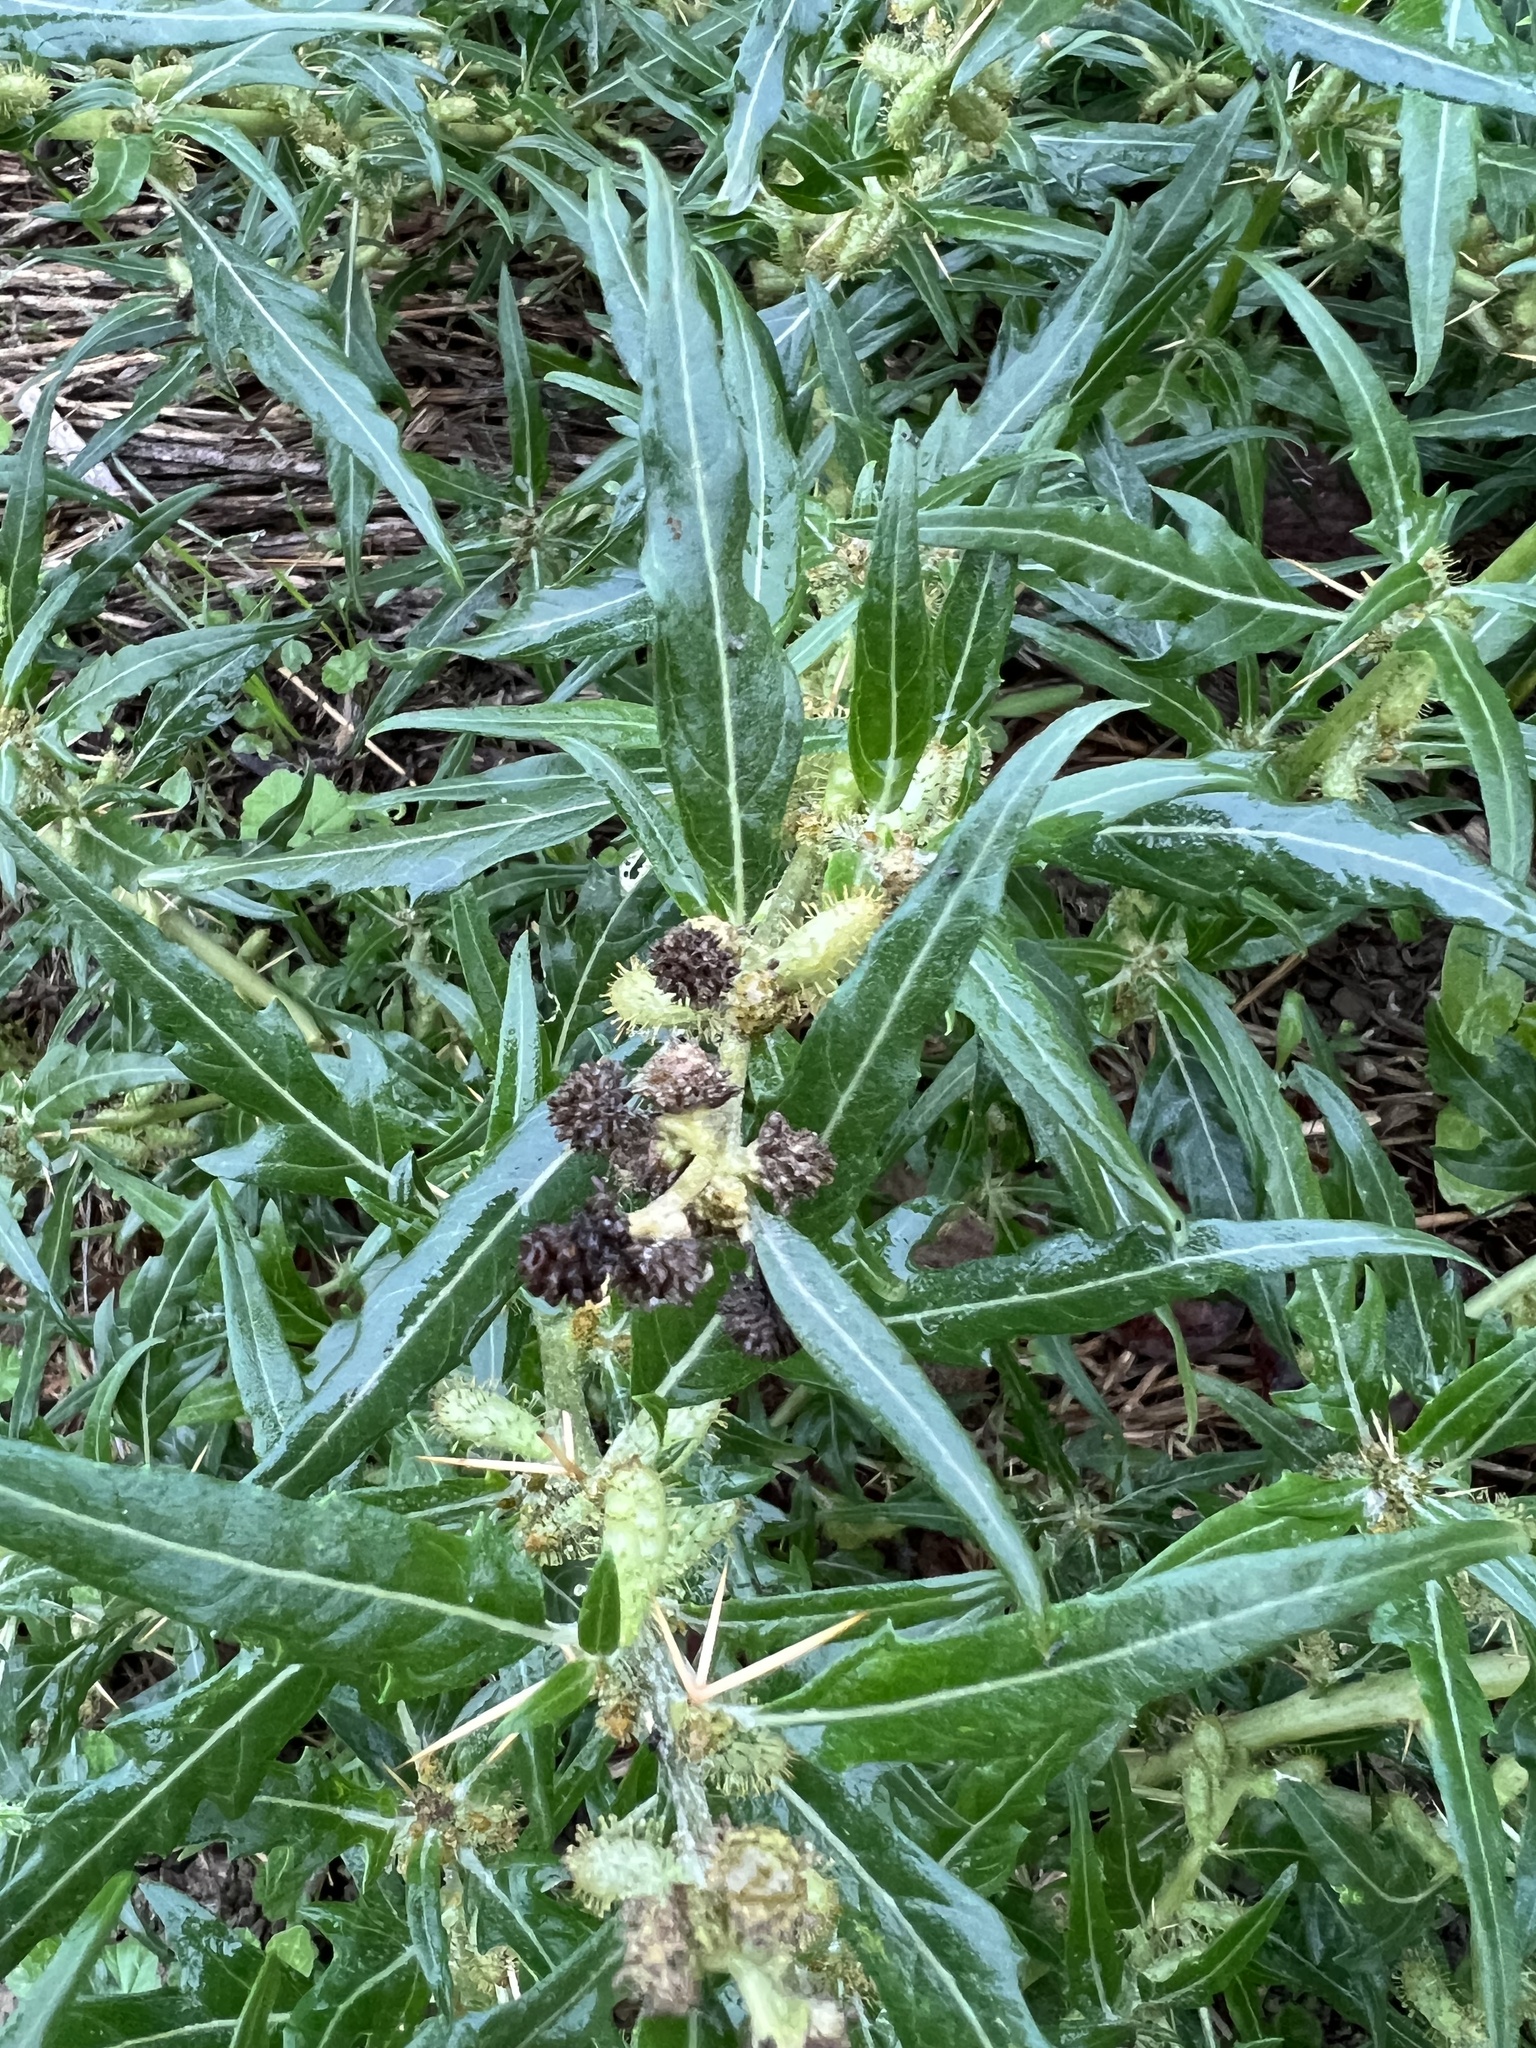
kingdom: Plantae
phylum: Tracheophyta
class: Magnoliopsida
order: Asterales
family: Asteraceae
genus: Xanthium
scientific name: Xanthium spinosum
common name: Spiny cocklebur
